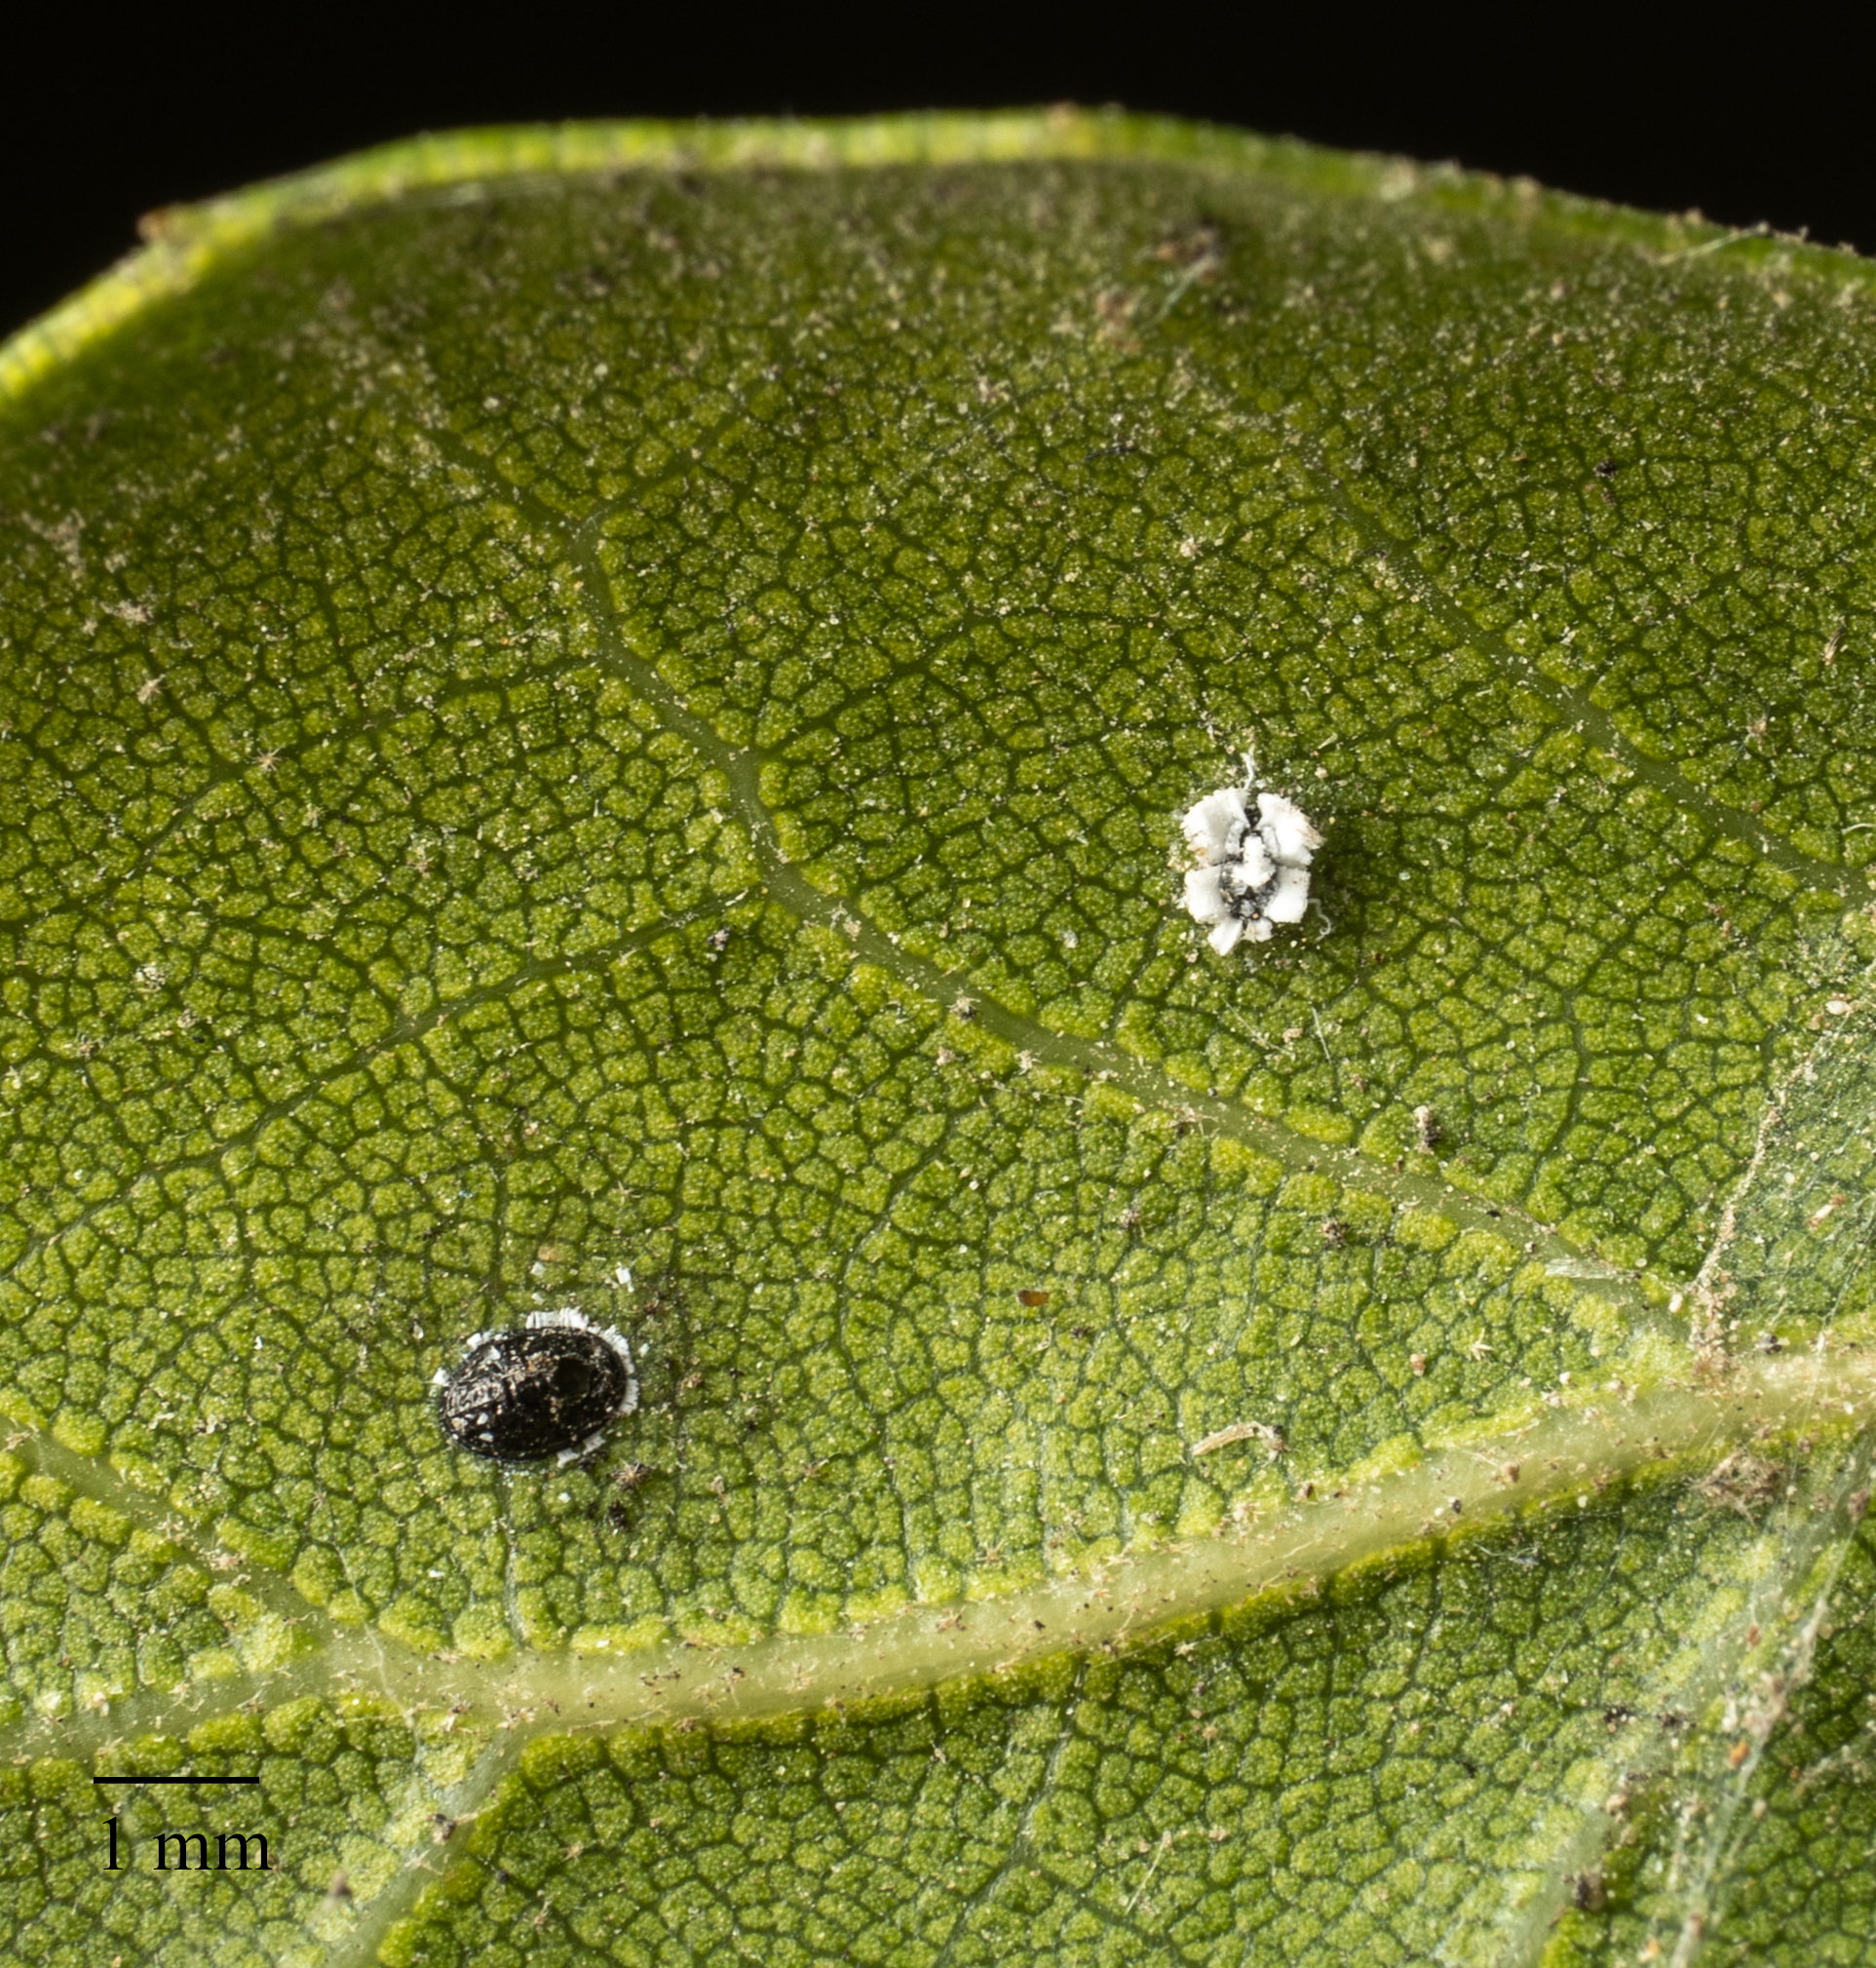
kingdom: Animalia
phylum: Arthropoda
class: Insecta
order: Hemiptera
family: Aleyrodidae
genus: Aleuroplatus
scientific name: Aleuroplatus coronata
